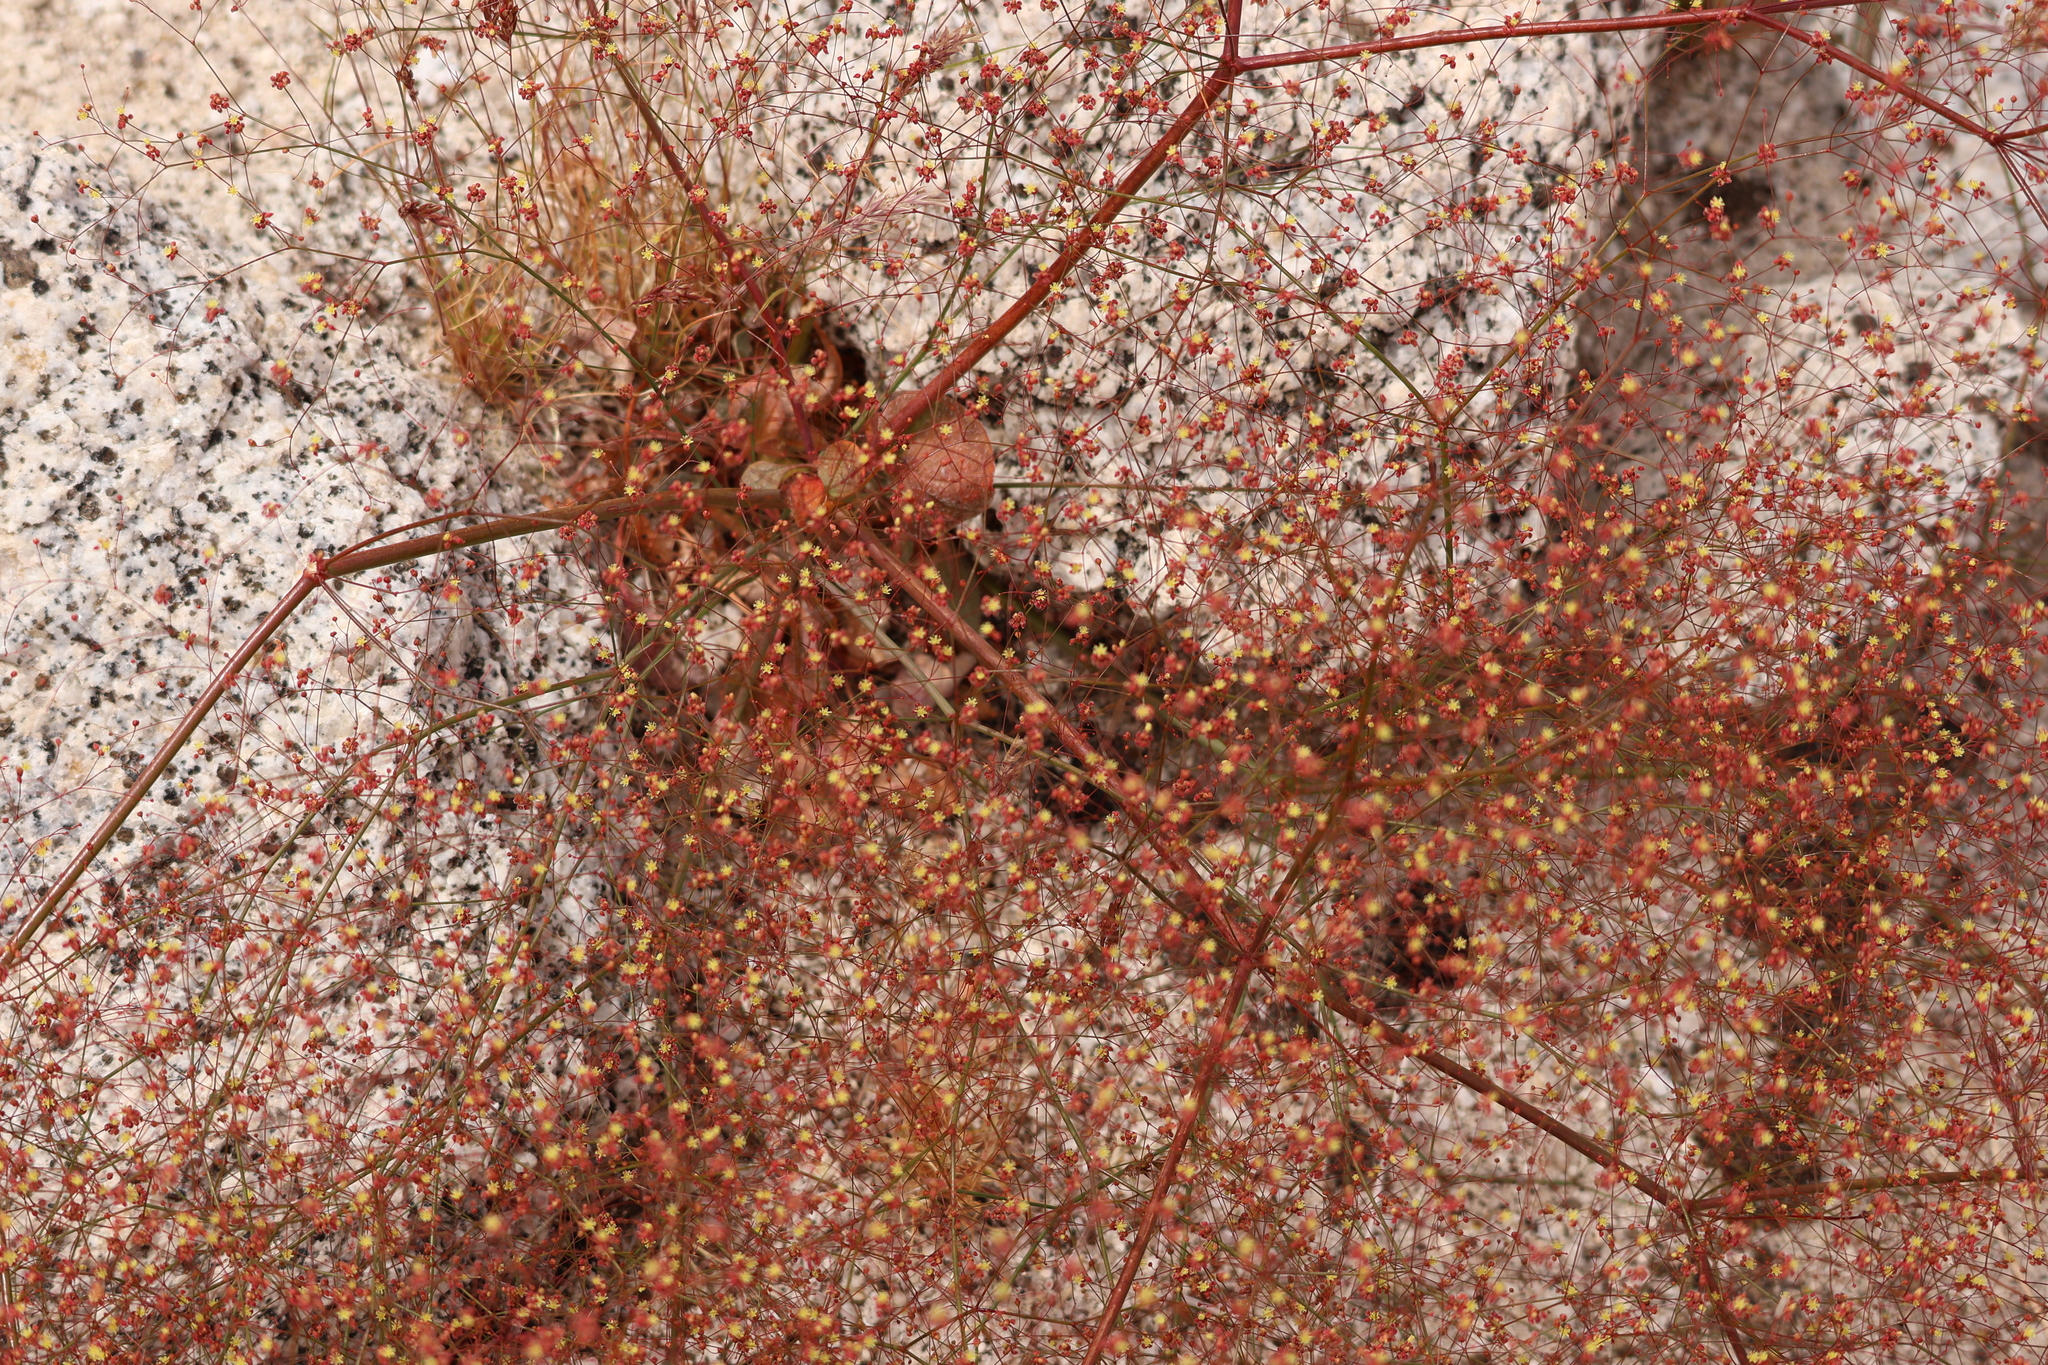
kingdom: Plantae
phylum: Tracheophyta
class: Magnoliopsida
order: Caryophyllales
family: Polygonaceae
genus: Eriogonum
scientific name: Eriogonum thomasii
